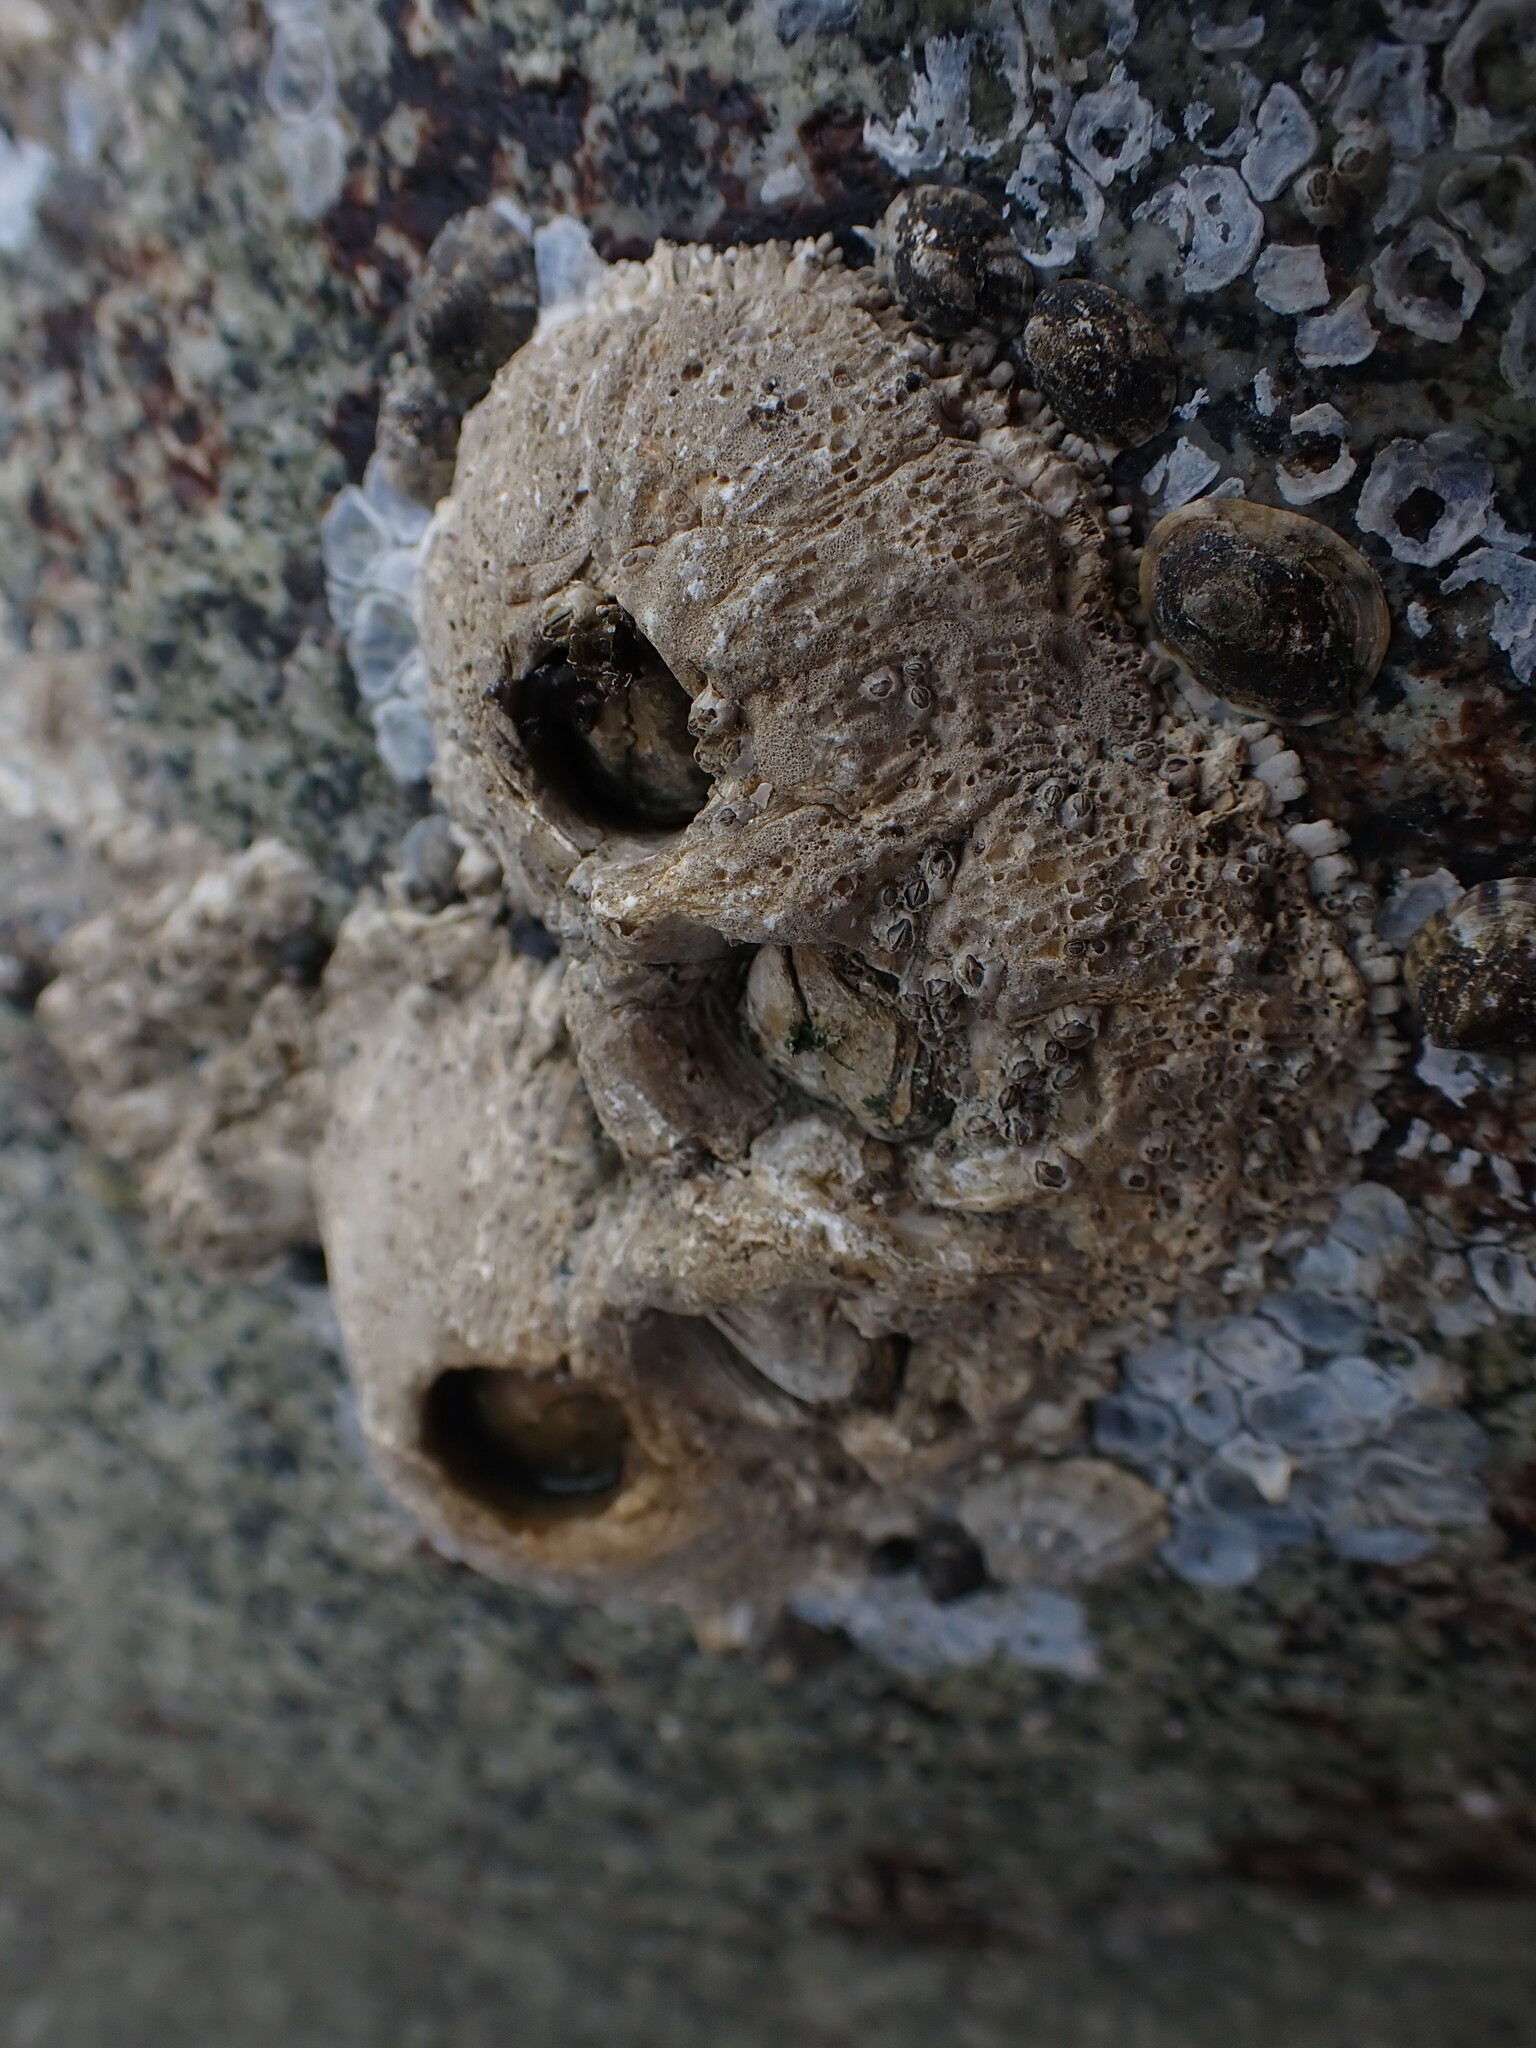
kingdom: Animalia
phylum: Arthropoda
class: Maxillopoda
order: Sessilia
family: Archaeobalanidae
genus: Semibalanus
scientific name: Semibalanus cariosus
